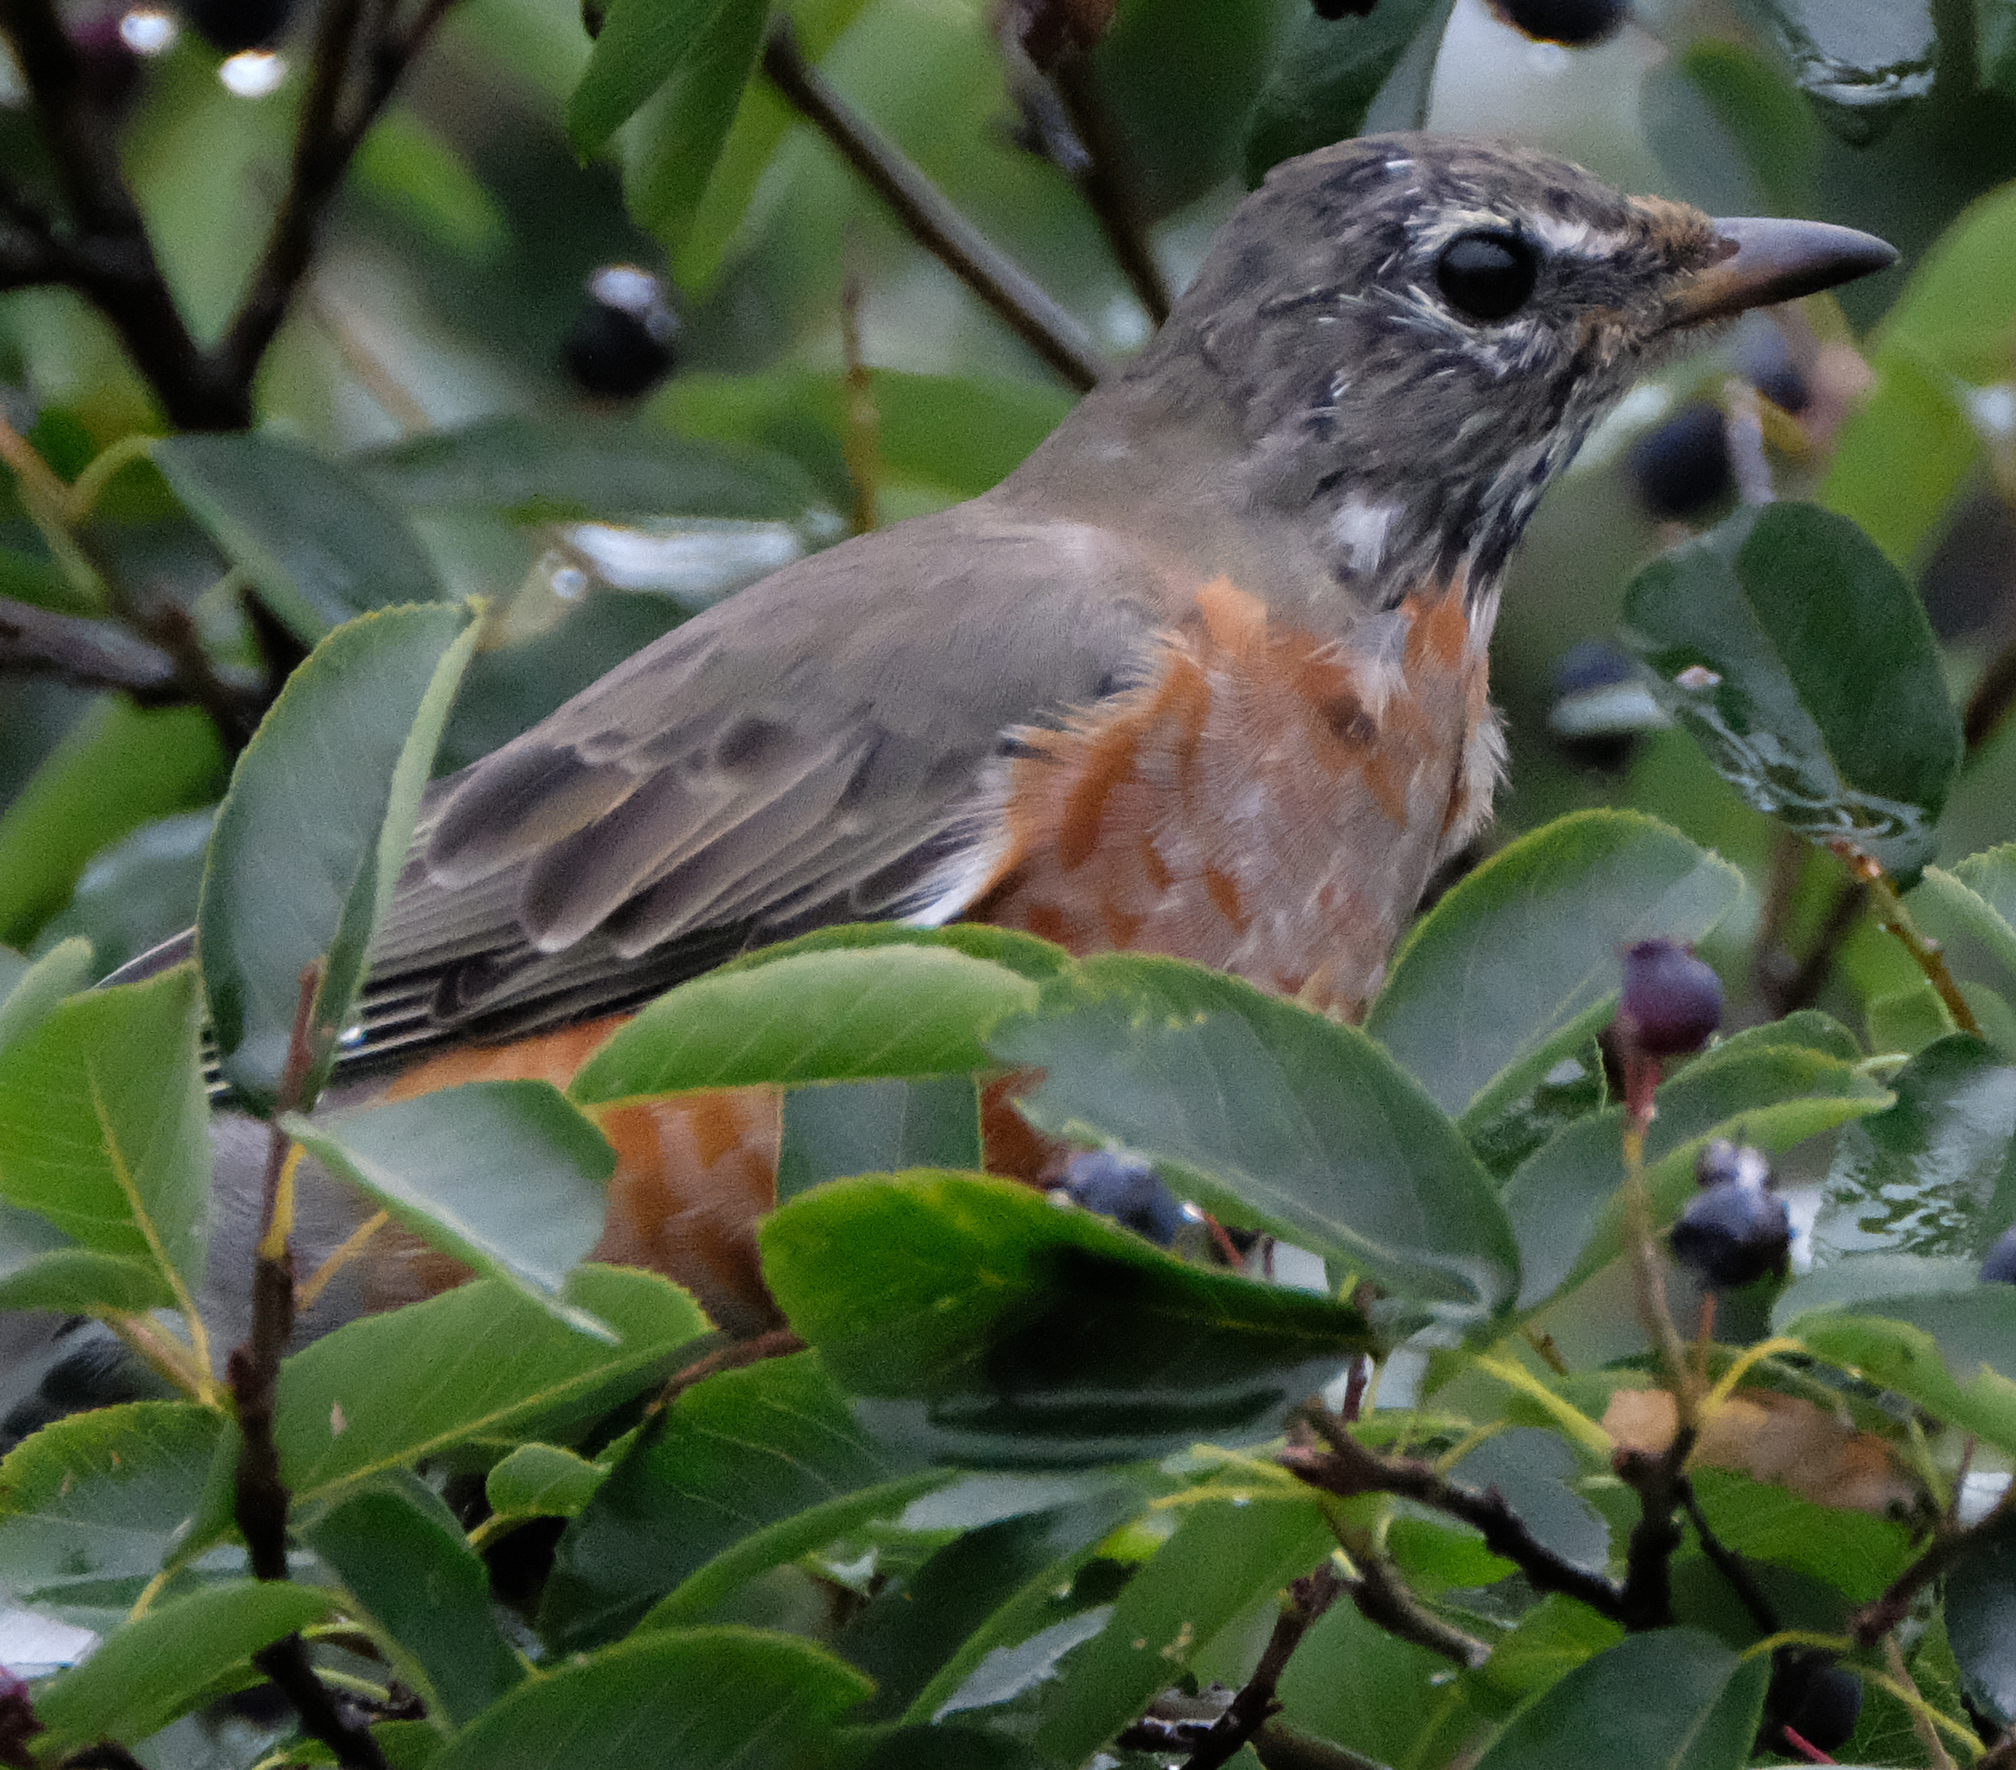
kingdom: Animalia
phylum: Chordata
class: Aves
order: Passeriformes
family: Turdidae
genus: Turdus
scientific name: Turdus migratorius
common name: American robin
